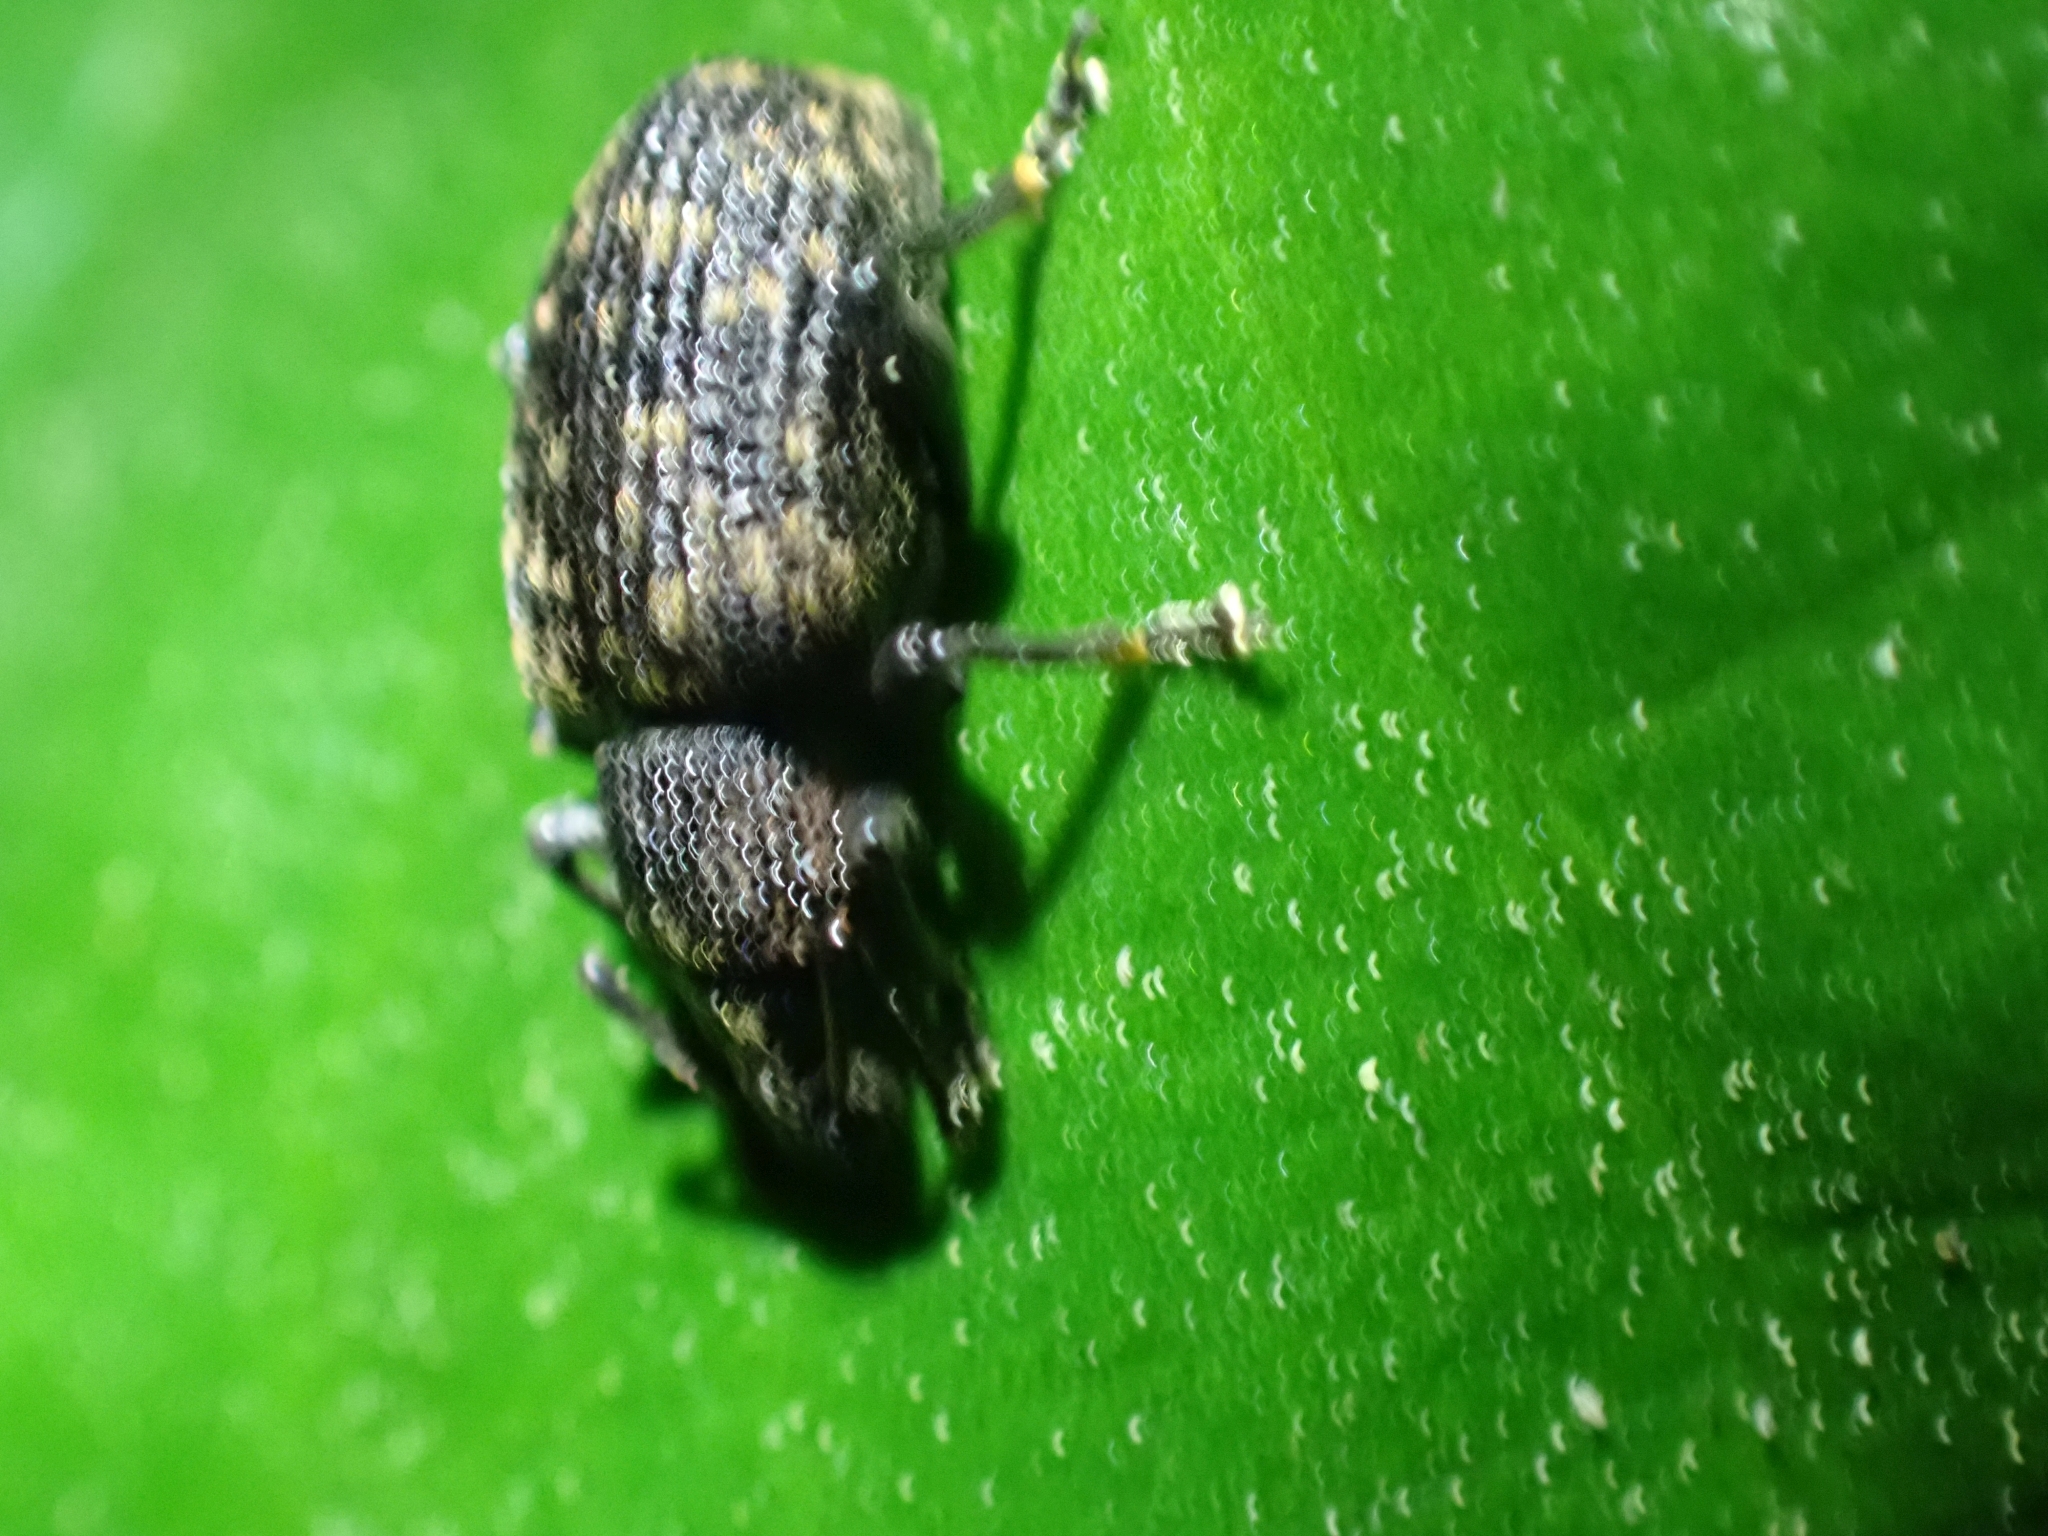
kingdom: Animalia
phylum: Arthropoda
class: Insecta
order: Coleoptera
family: Curculionidae
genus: Otiorhynchus
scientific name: Otiorhynchus sulcatus
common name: Black vine weevil
